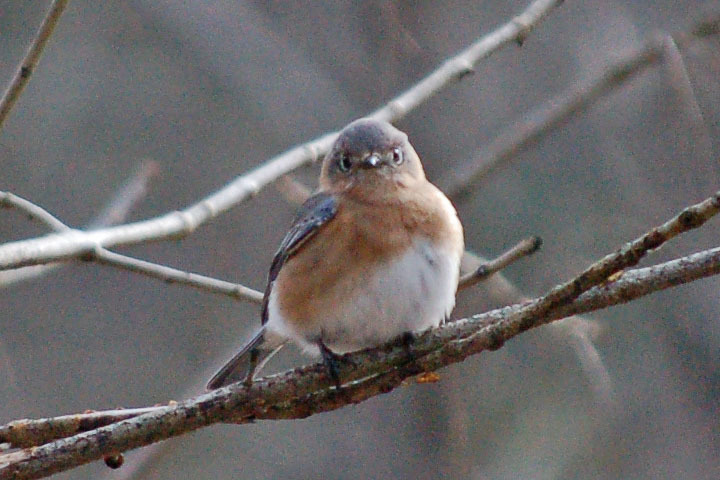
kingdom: Animalia
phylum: Chordata
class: Aves
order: Passeriformes
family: Turdidae
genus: Sialia
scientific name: Sialia sialis
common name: Eastern bluebird
